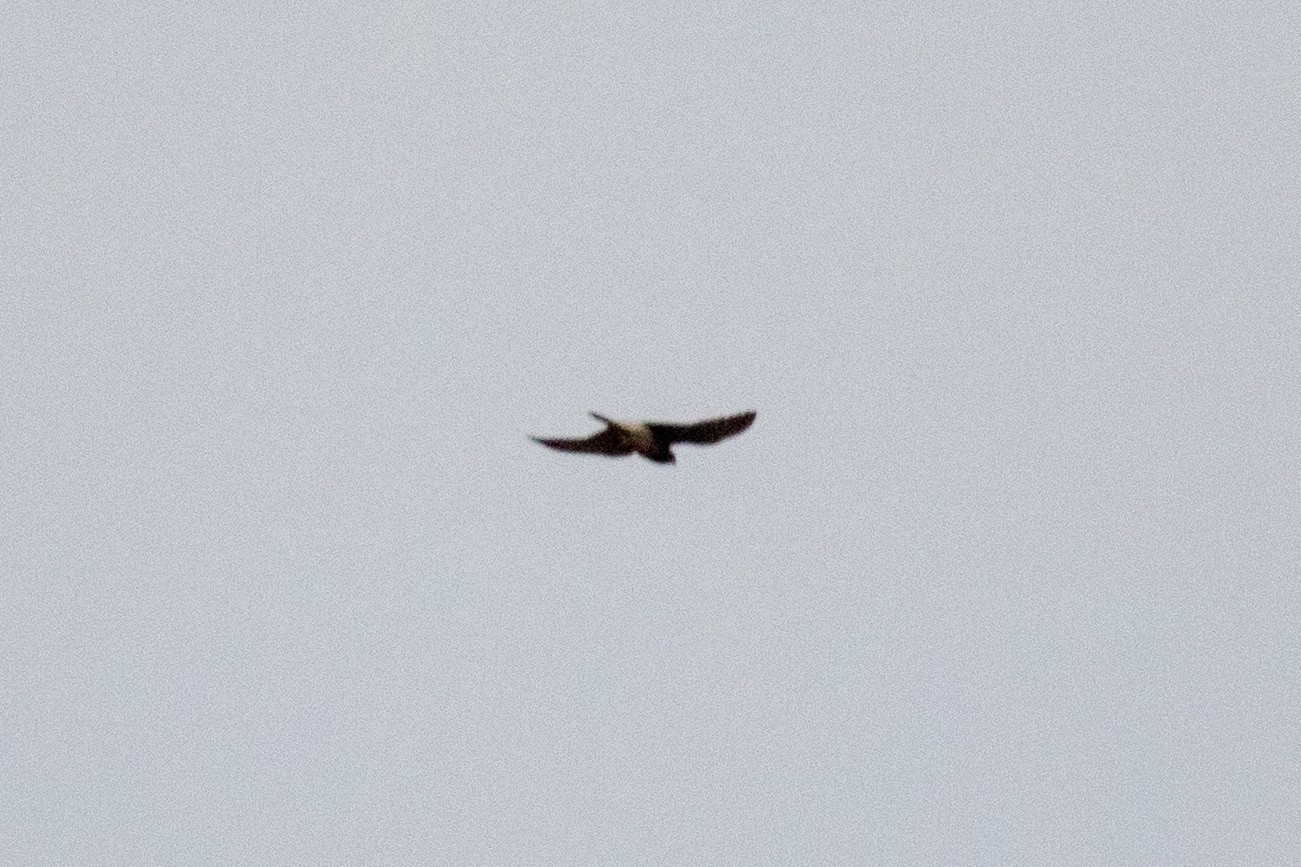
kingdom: Animalia
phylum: Chordata
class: Aves
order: Falconiformes
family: Falconidae
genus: Falco
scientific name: Falco tinnunculus
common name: Common kestrel
